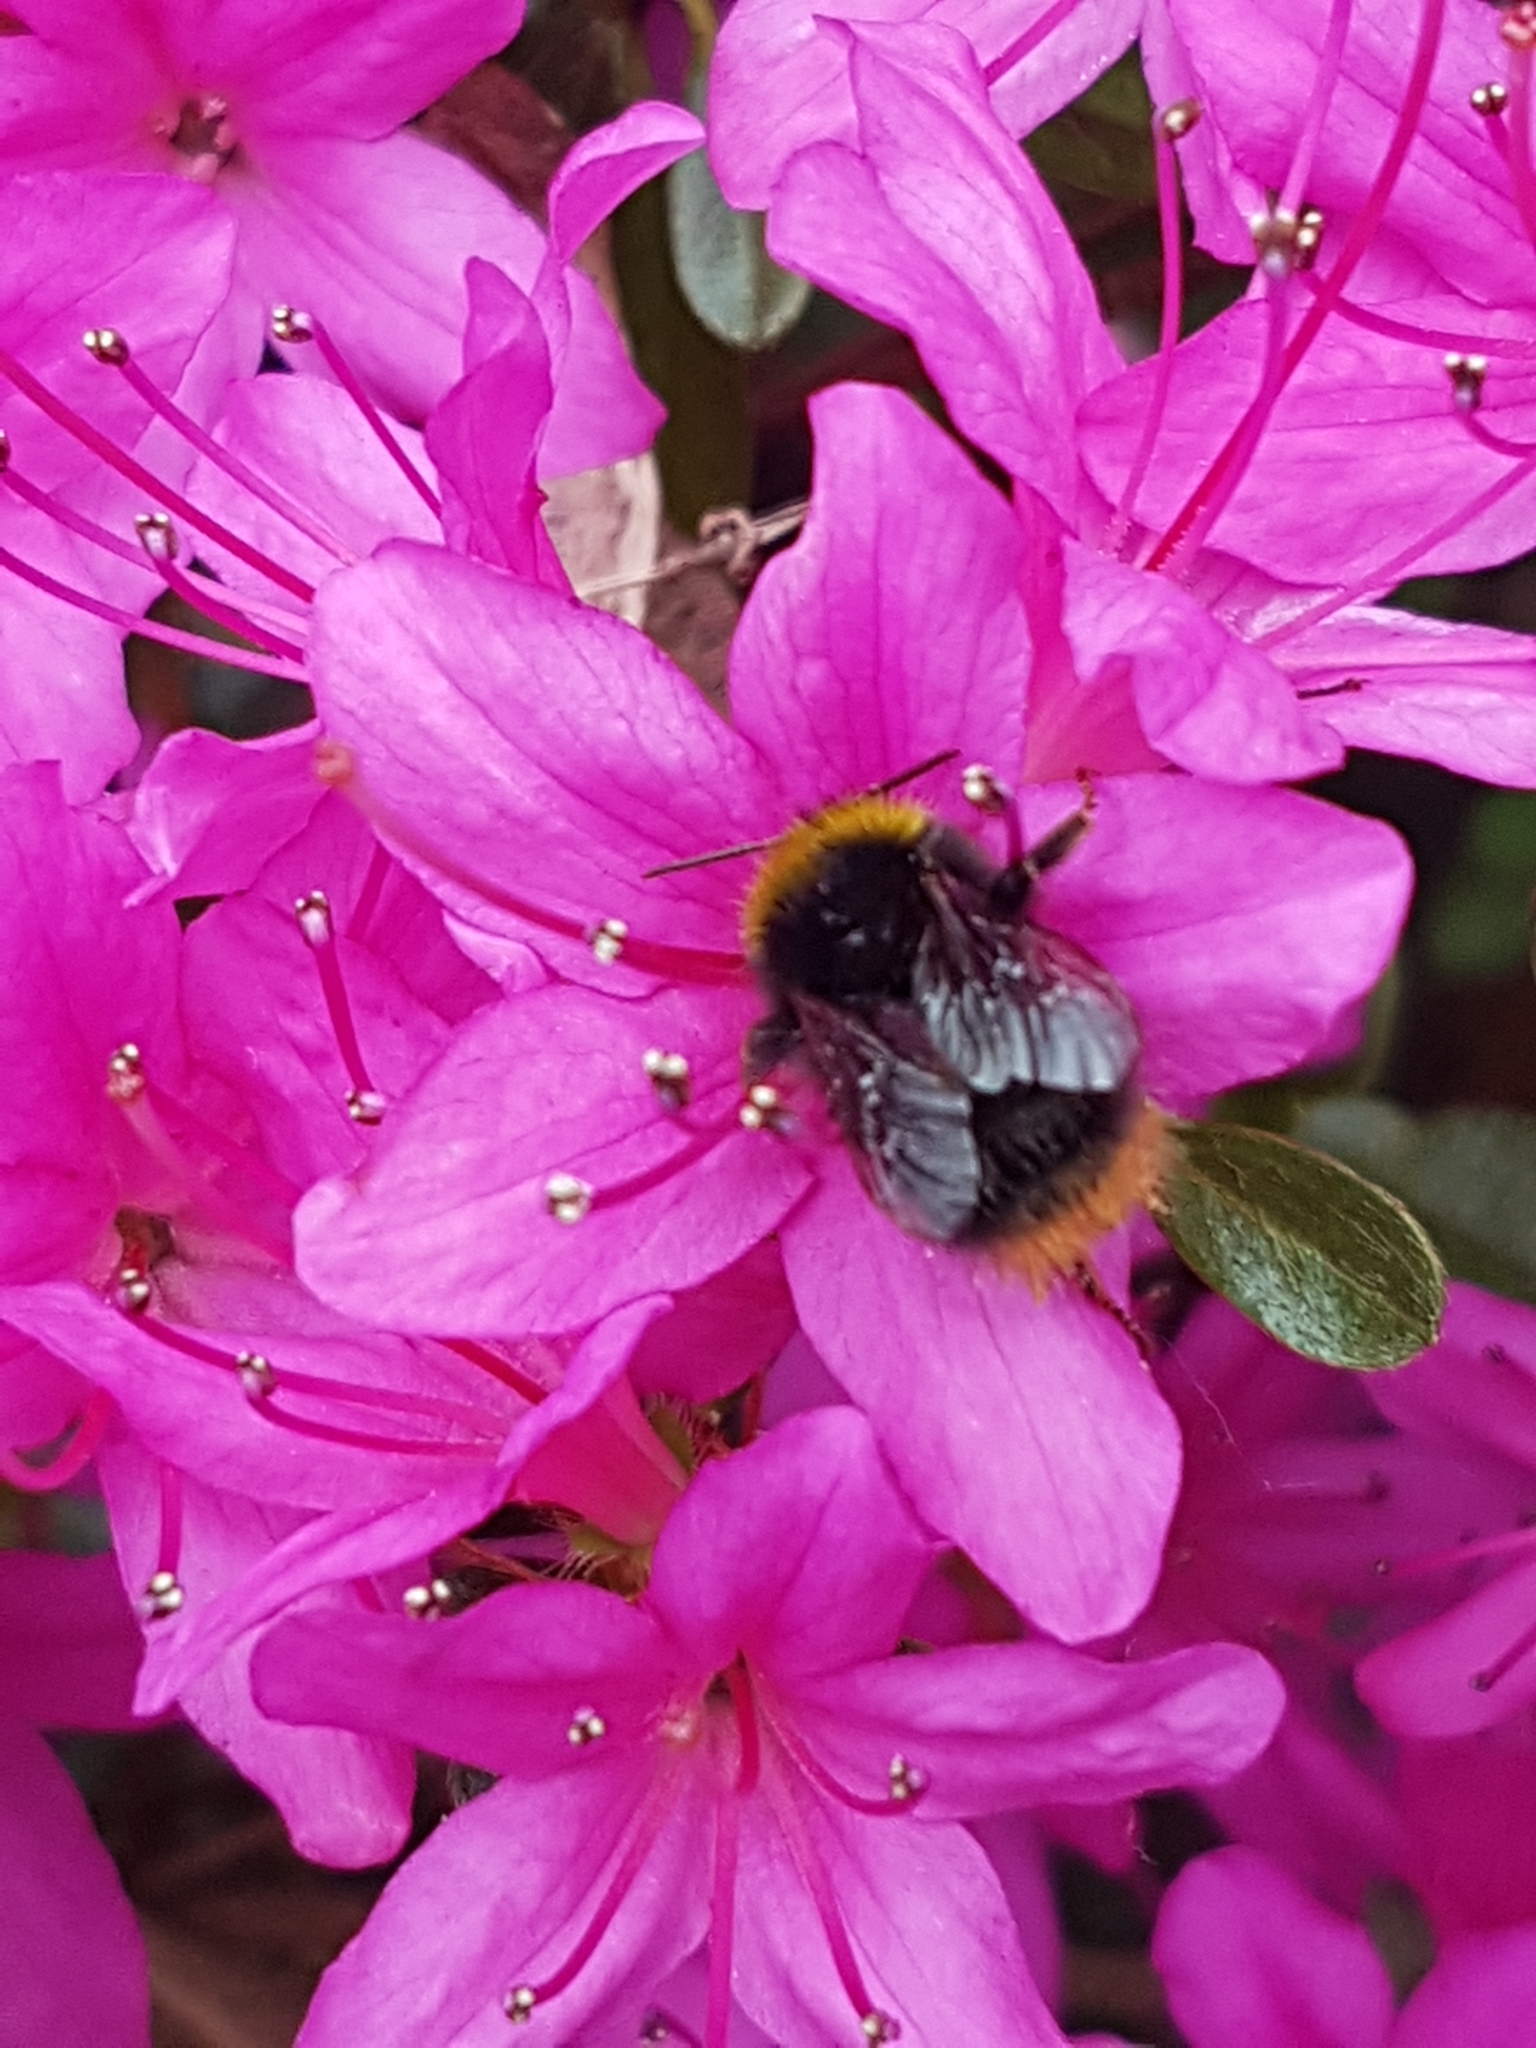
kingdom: Animalia
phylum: Arthropoda
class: Insecta
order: Hymenoptera
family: Apidae
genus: Bombus
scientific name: Bombus pratorum
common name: Early humble-bee
